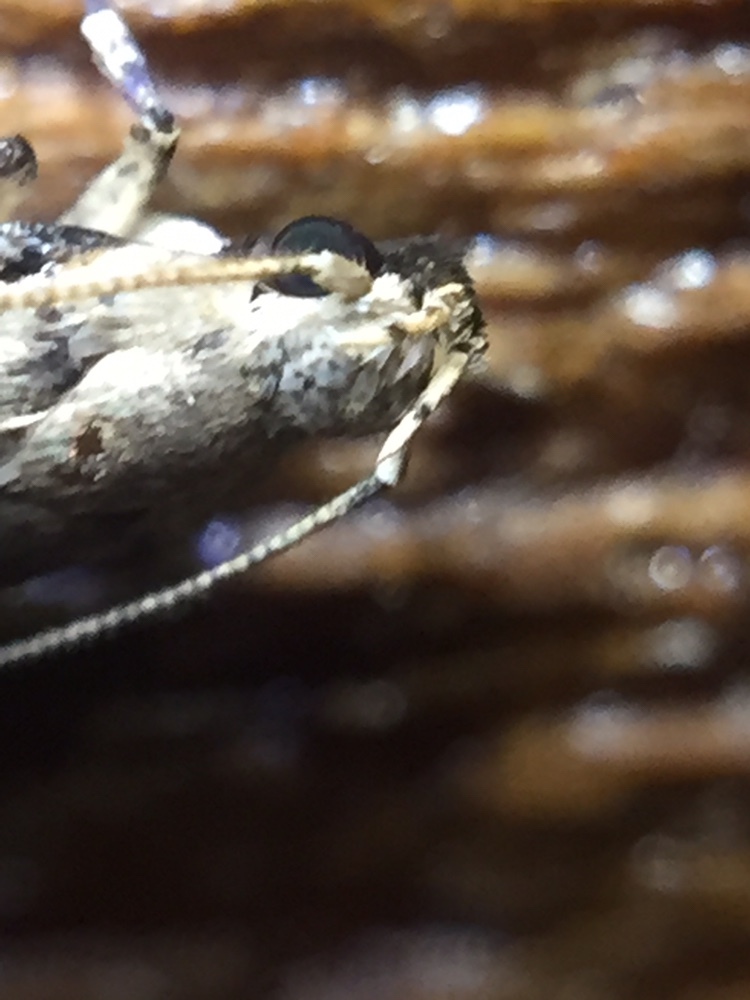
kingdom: Animalia
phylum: Arthropoda
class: Insecta
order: Lepidoptera
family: Gelechiidae
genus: Anisoplaca
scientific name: Anisoplaca achyrota
